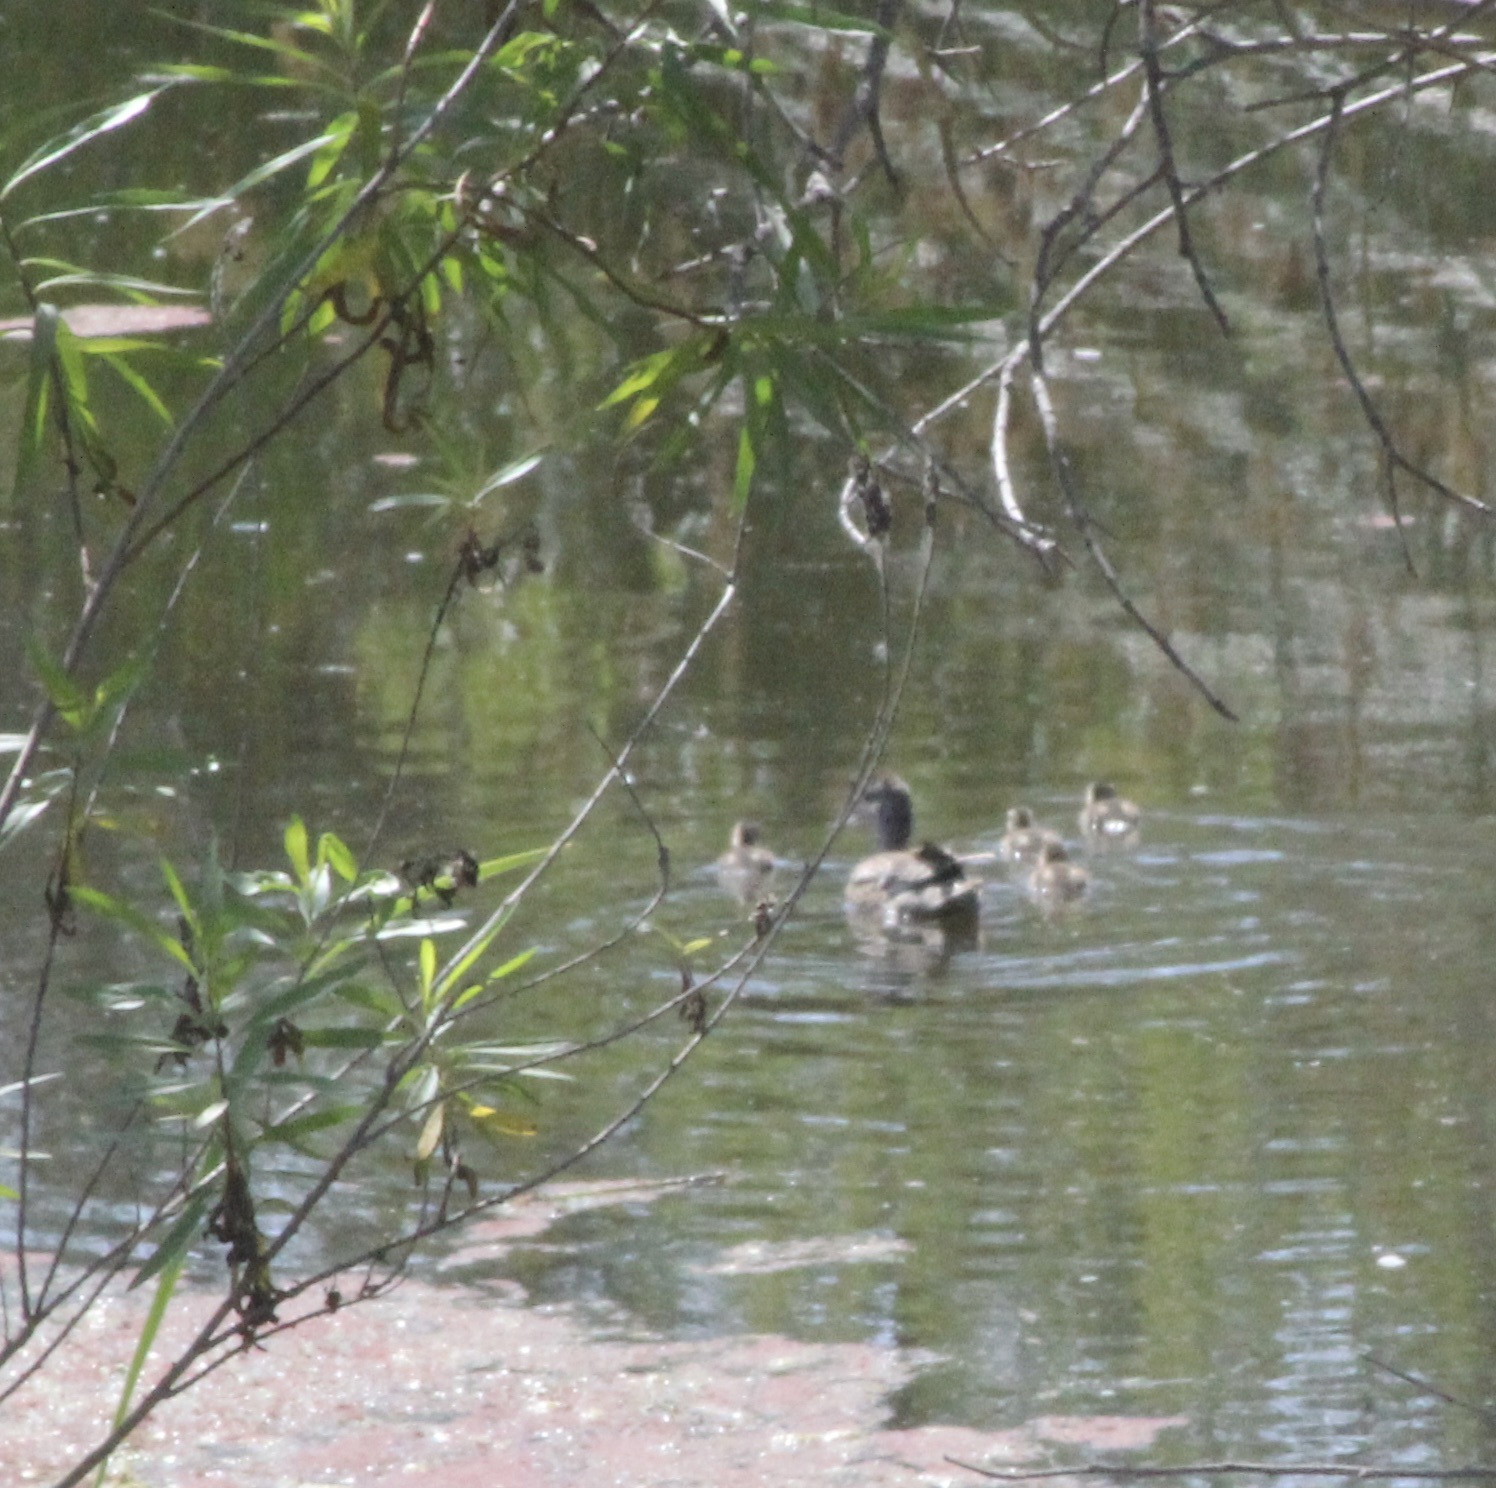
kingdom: Animalia
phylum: Chordata
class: Aves
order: Anseriformes
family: Anatidae
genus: Anas
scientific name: Anas platyrhynchos
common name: Mallard
